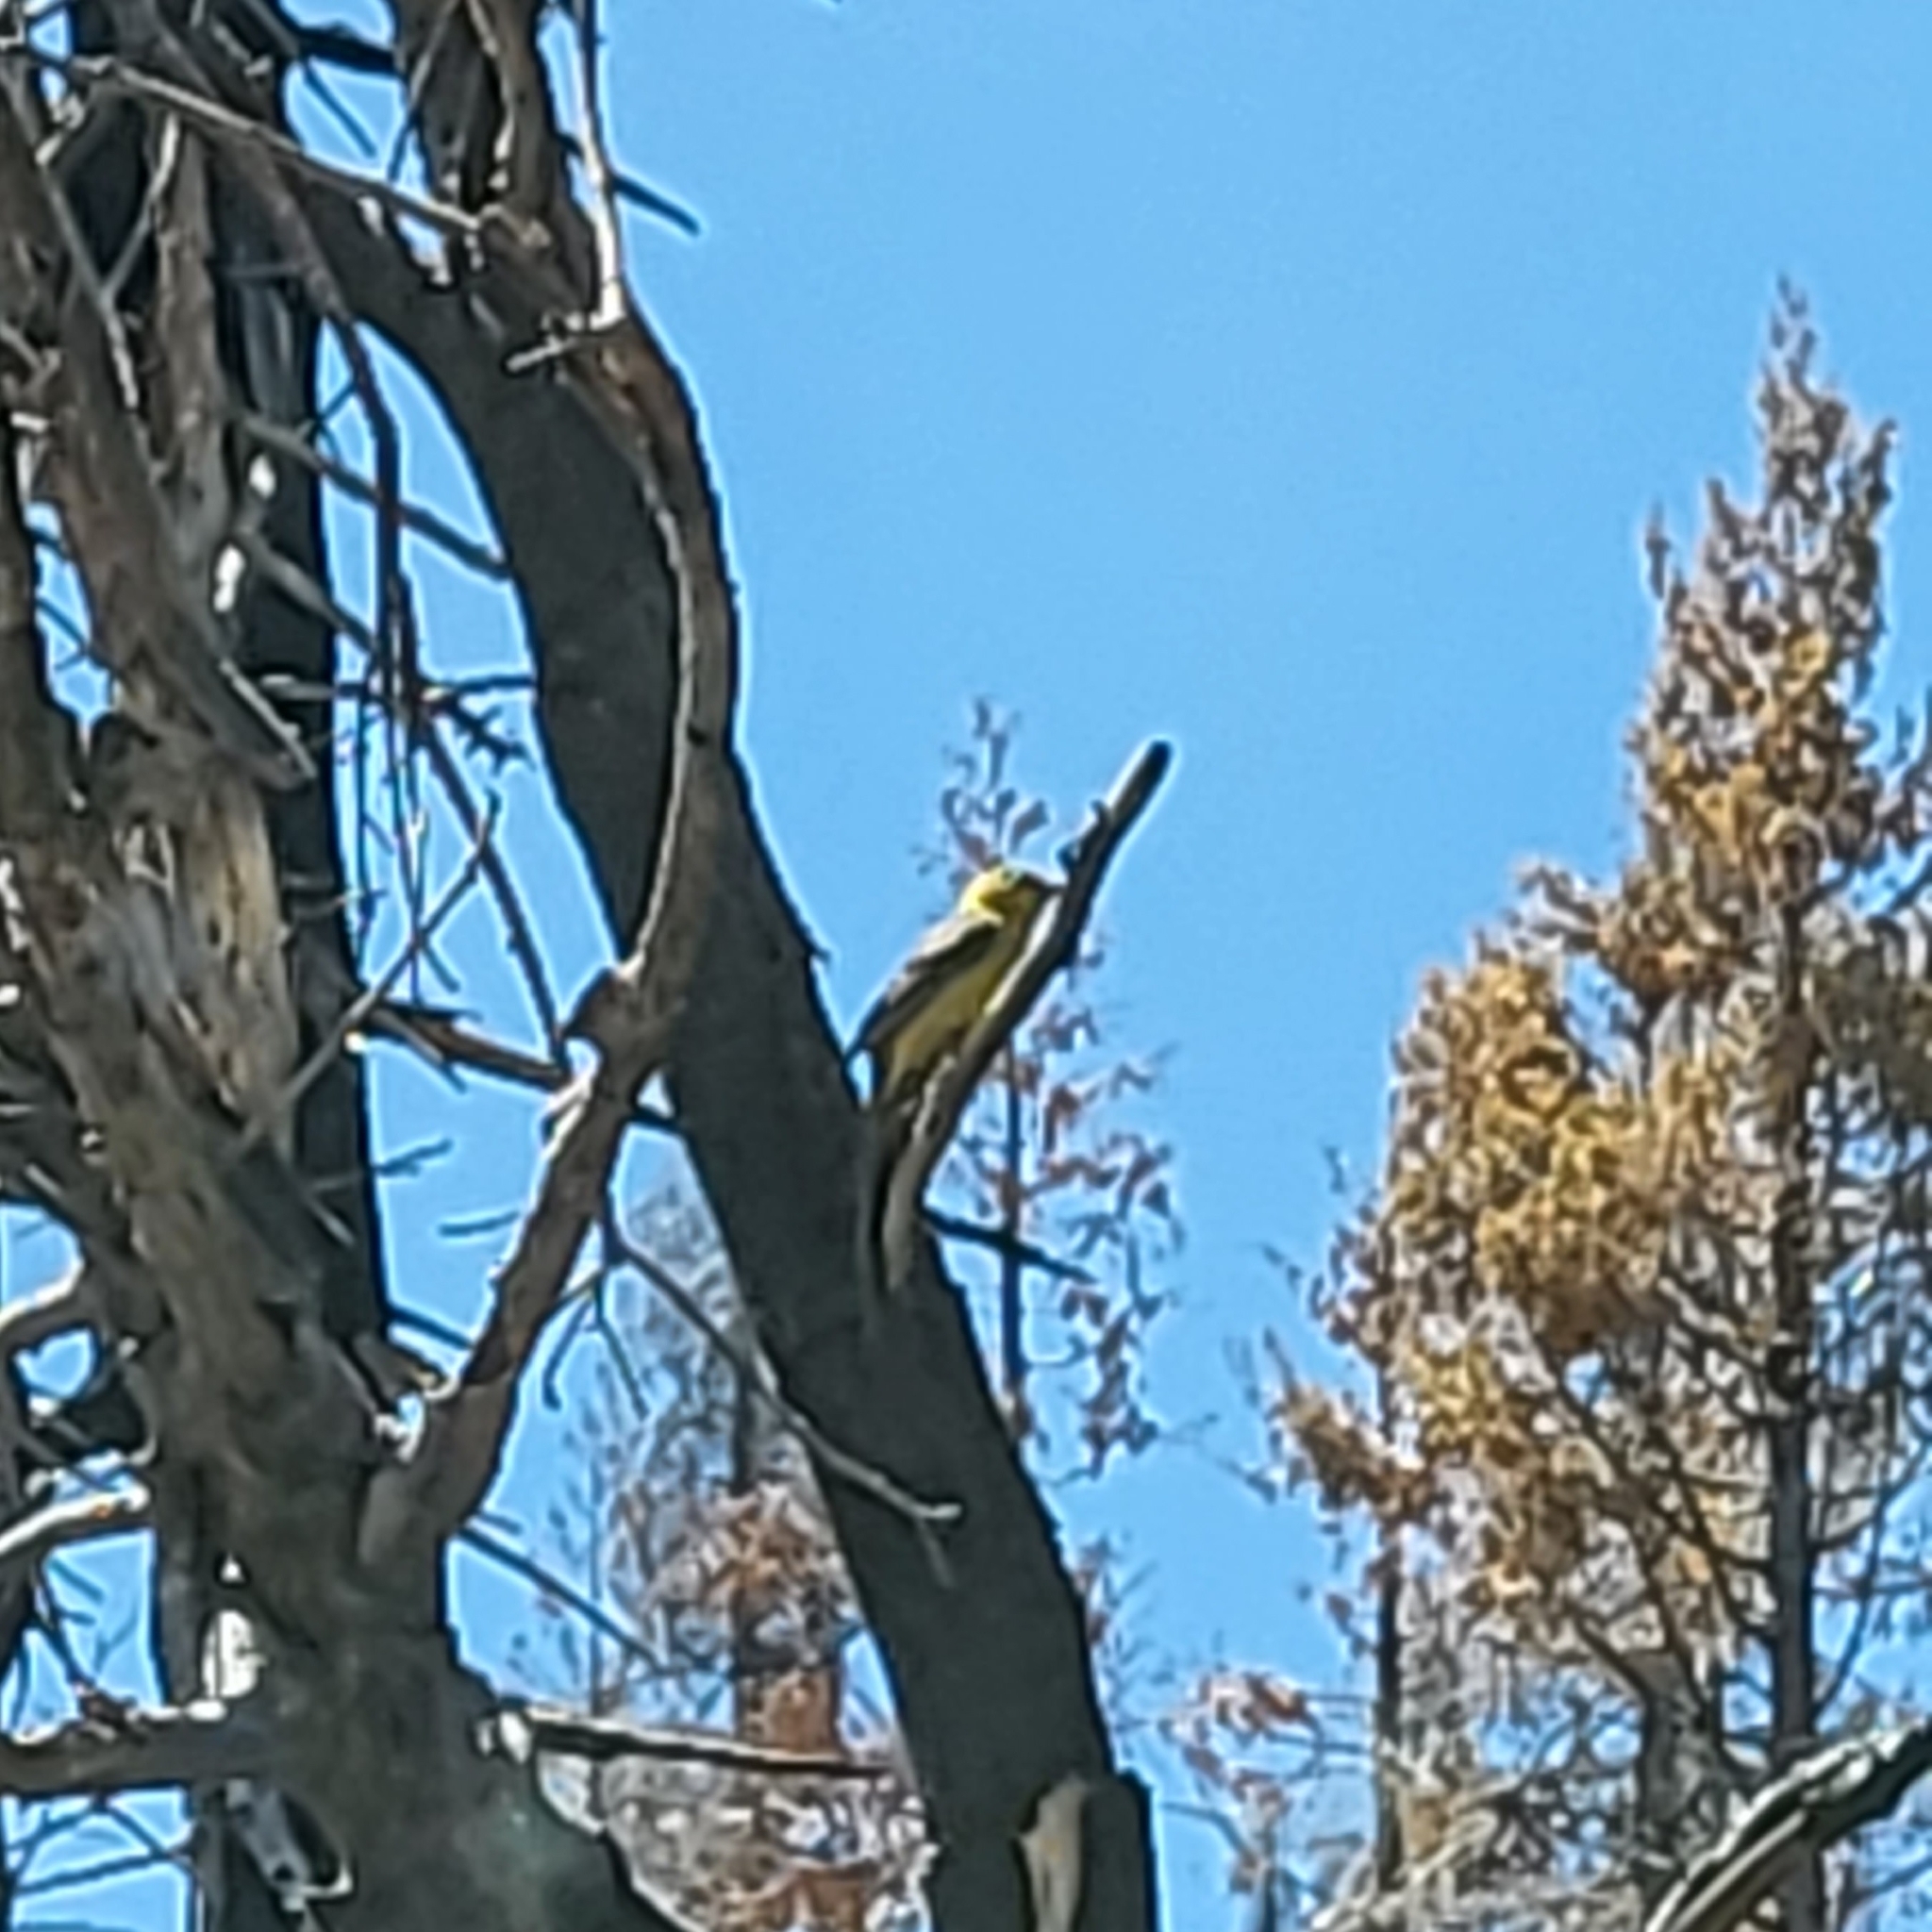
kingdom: Animalia
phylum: Chordata
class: Aves
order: Passeriformes
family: Cardinalidae
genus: Piranga
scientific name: Piranga ludoviciana
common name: Western tanager
